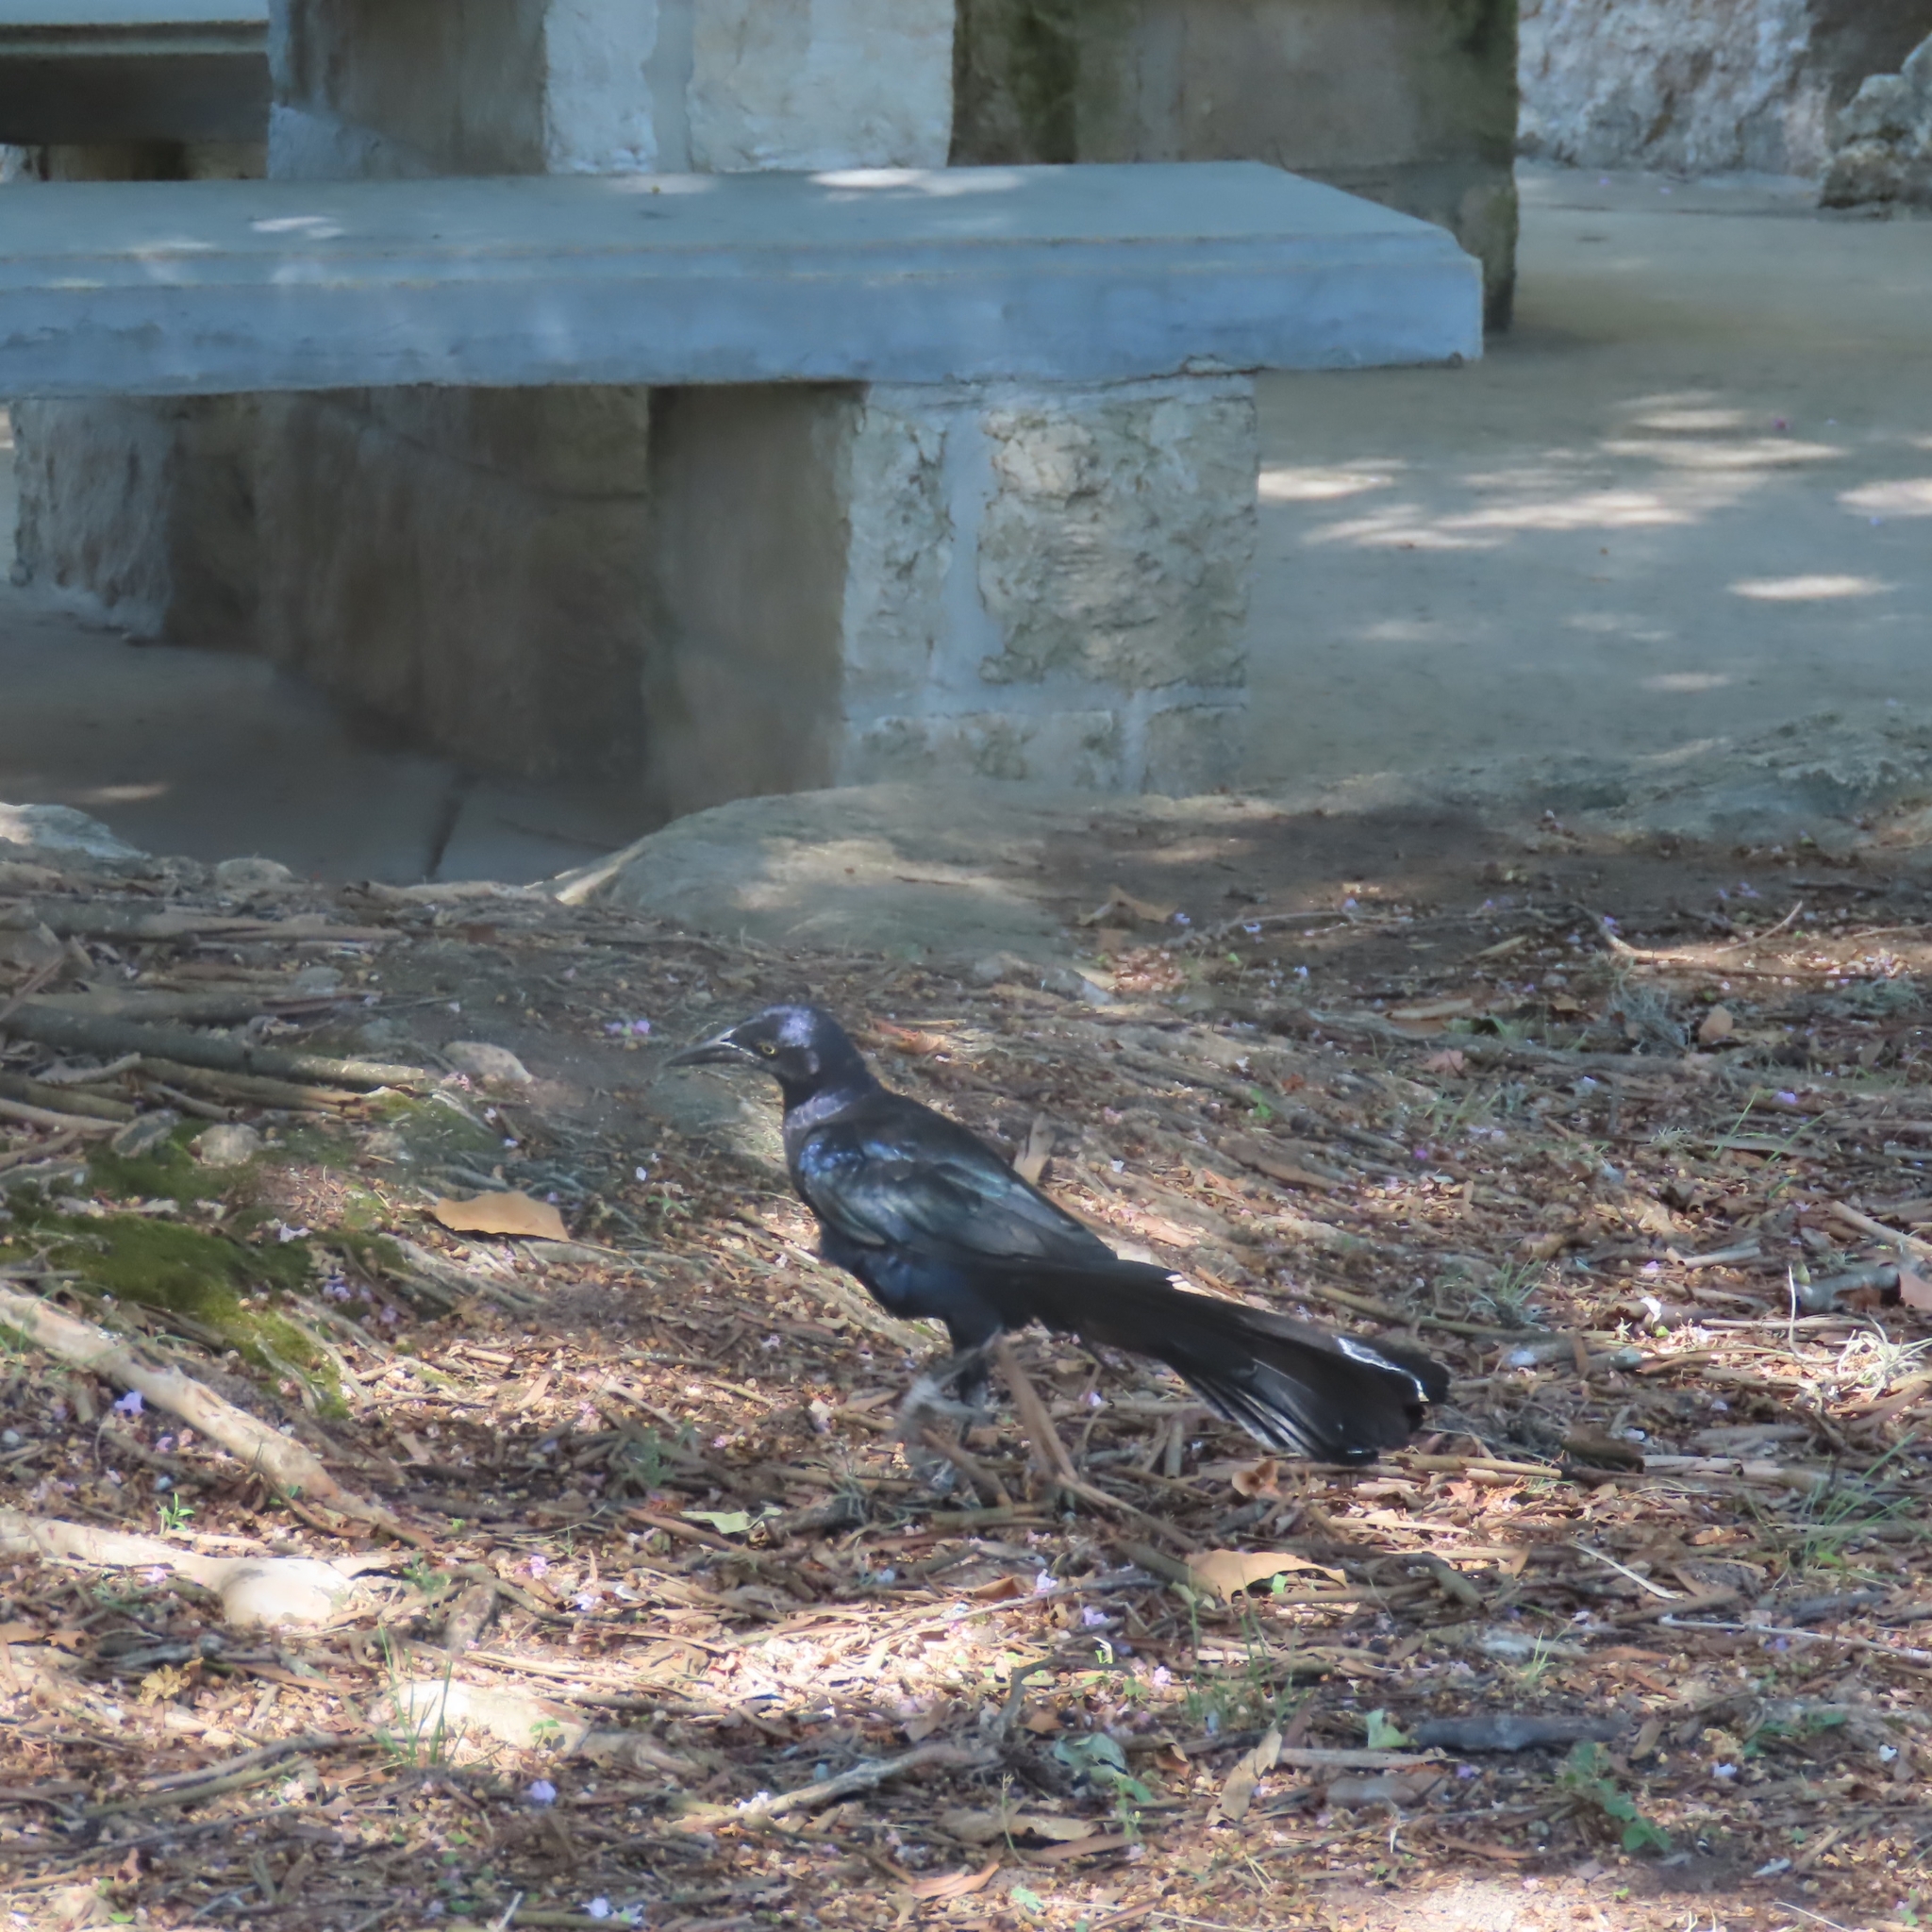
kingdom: Animalia
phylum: Chordata
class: Aves
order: Passeriformes
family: Icteridae
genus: Quiscalus
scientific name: Quiscalus mexicanus
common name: Great-tailed grackle
